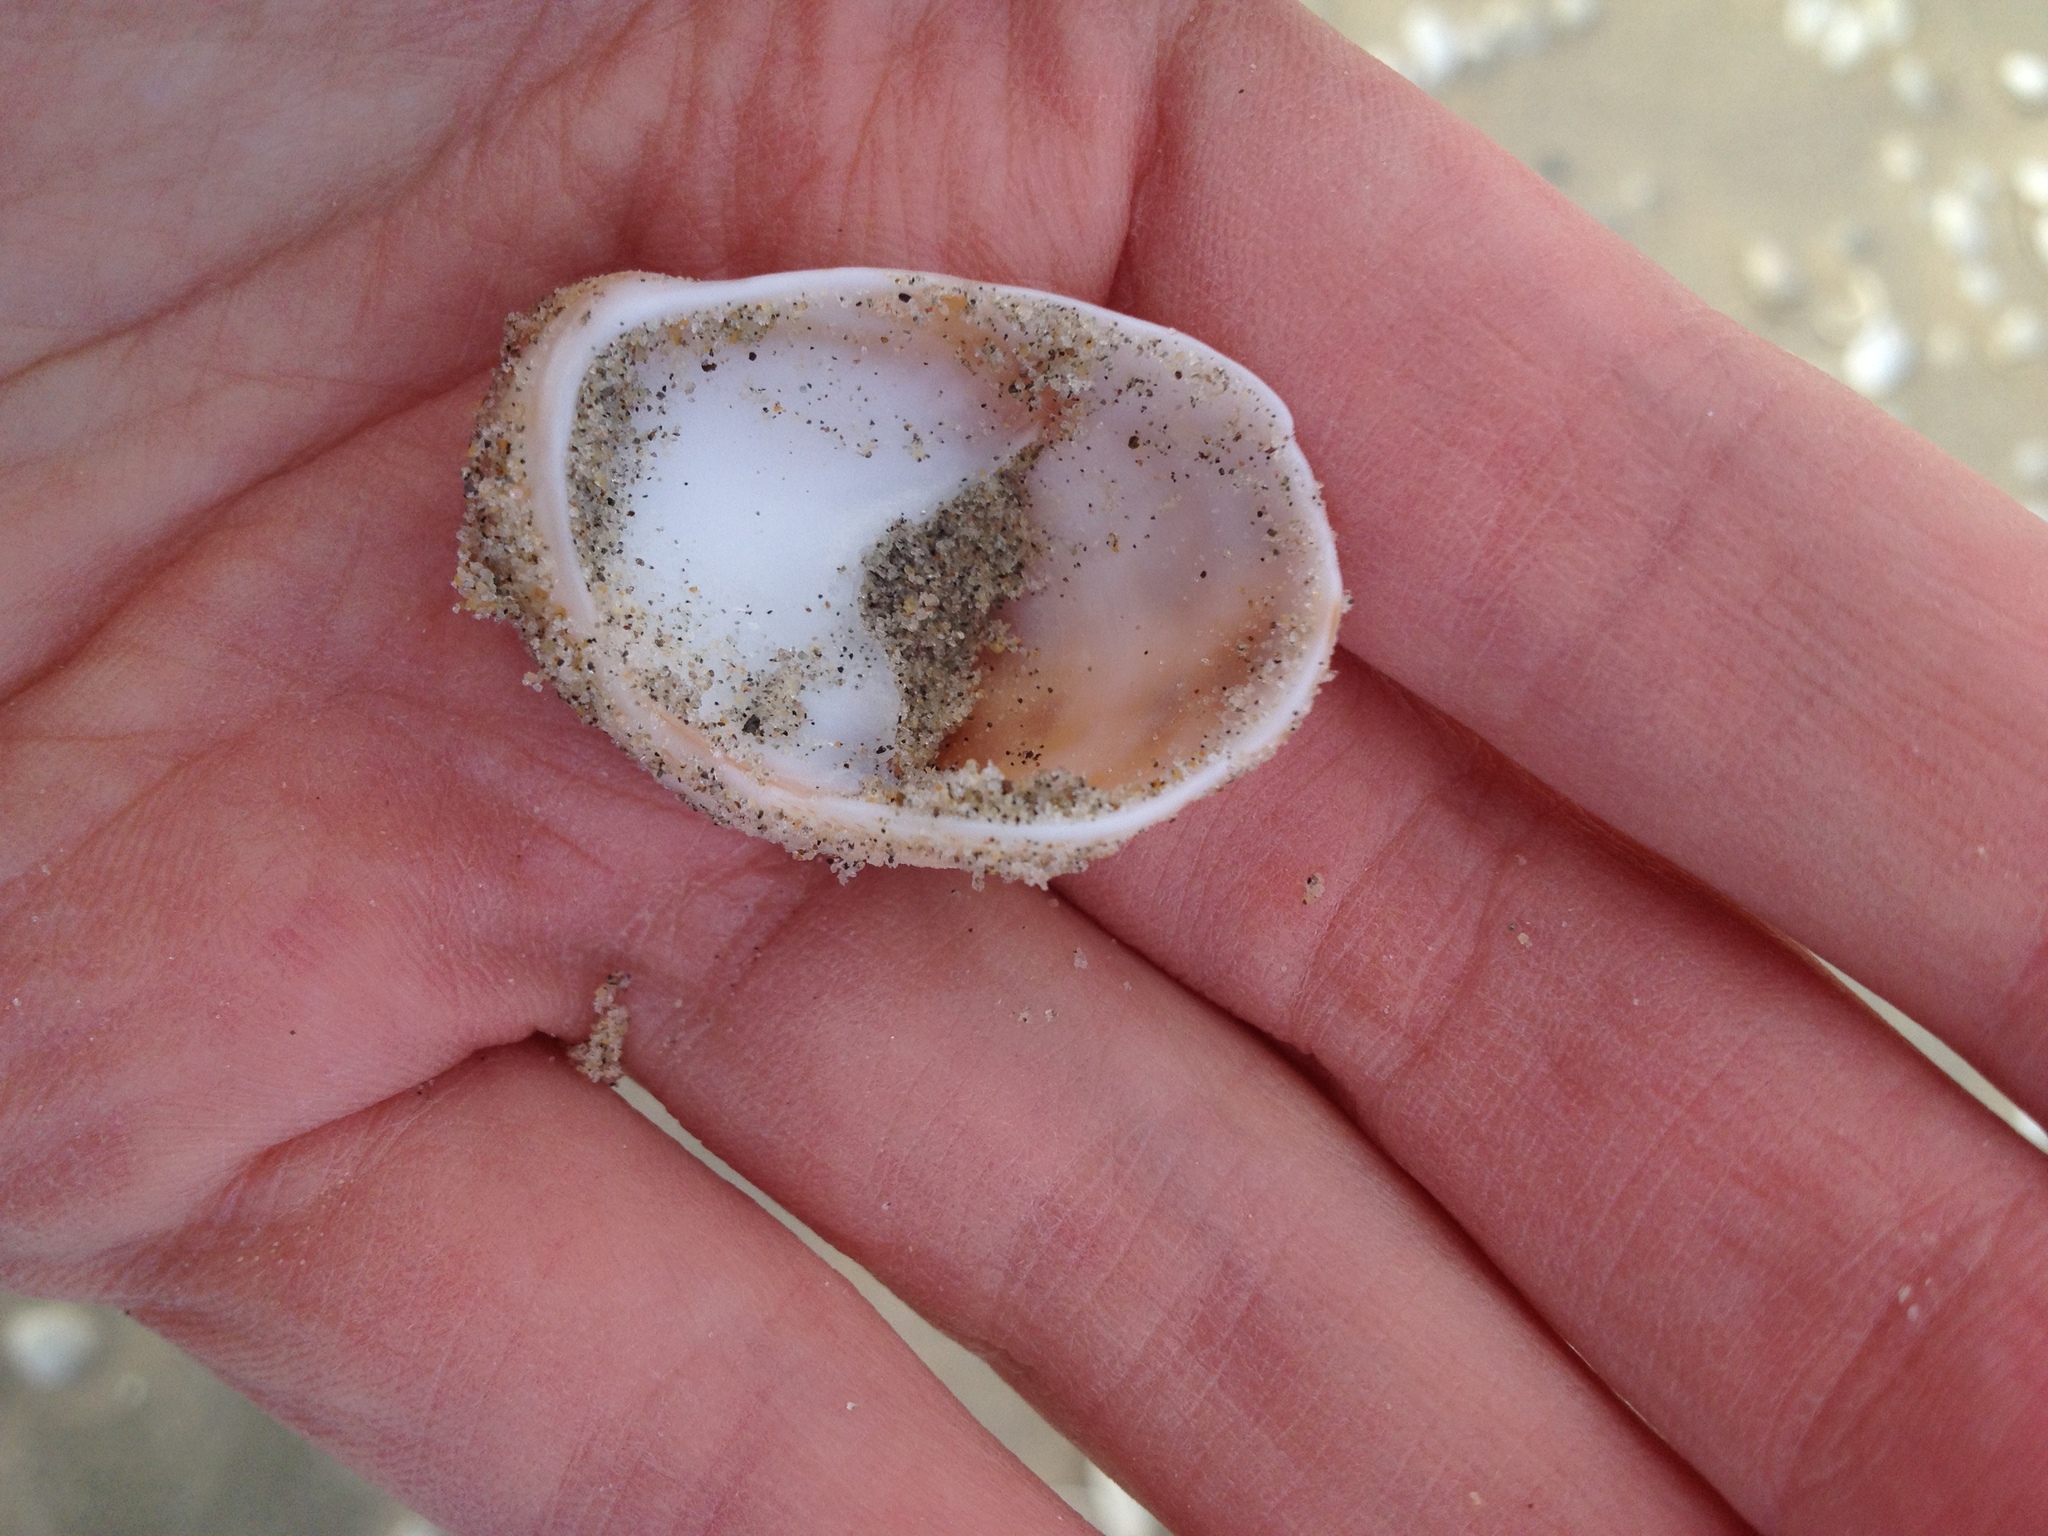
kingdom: Animalia
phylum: Mollusca
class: Gastropoda
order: Littorinimorpha
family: Calyptraeidae
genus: Crepidula
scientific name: Crepidula fornicata
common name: Slipper limpet
